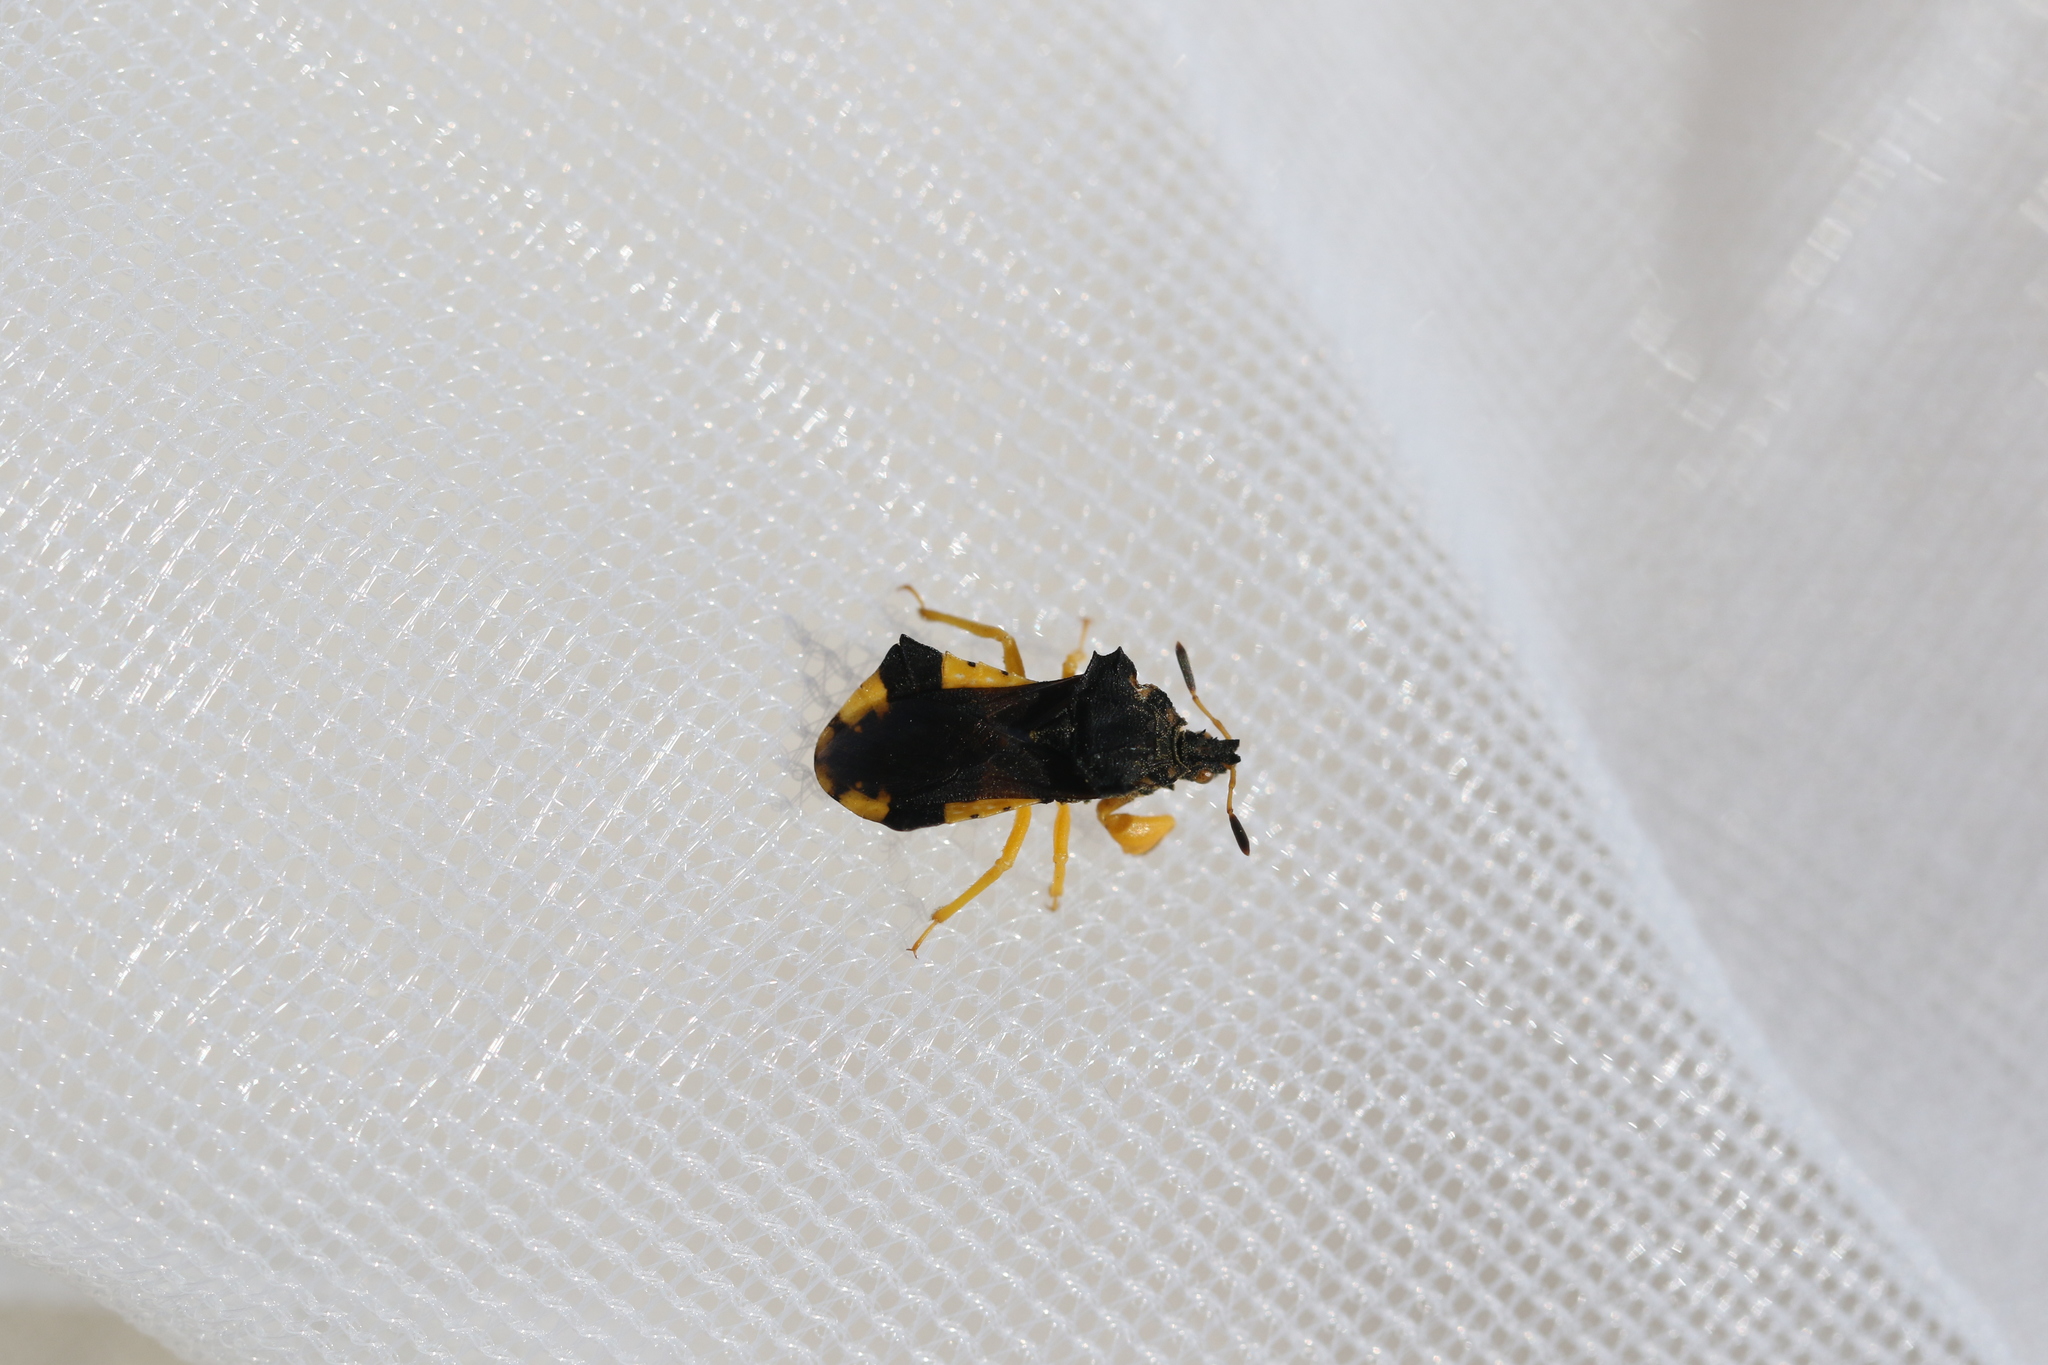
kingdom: Animalia
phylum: Arthropoda
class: Insecta
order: Hemiptera
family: Reduviidae
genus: Phymata
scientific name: Phymata americana
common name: Jagged ambush bug
